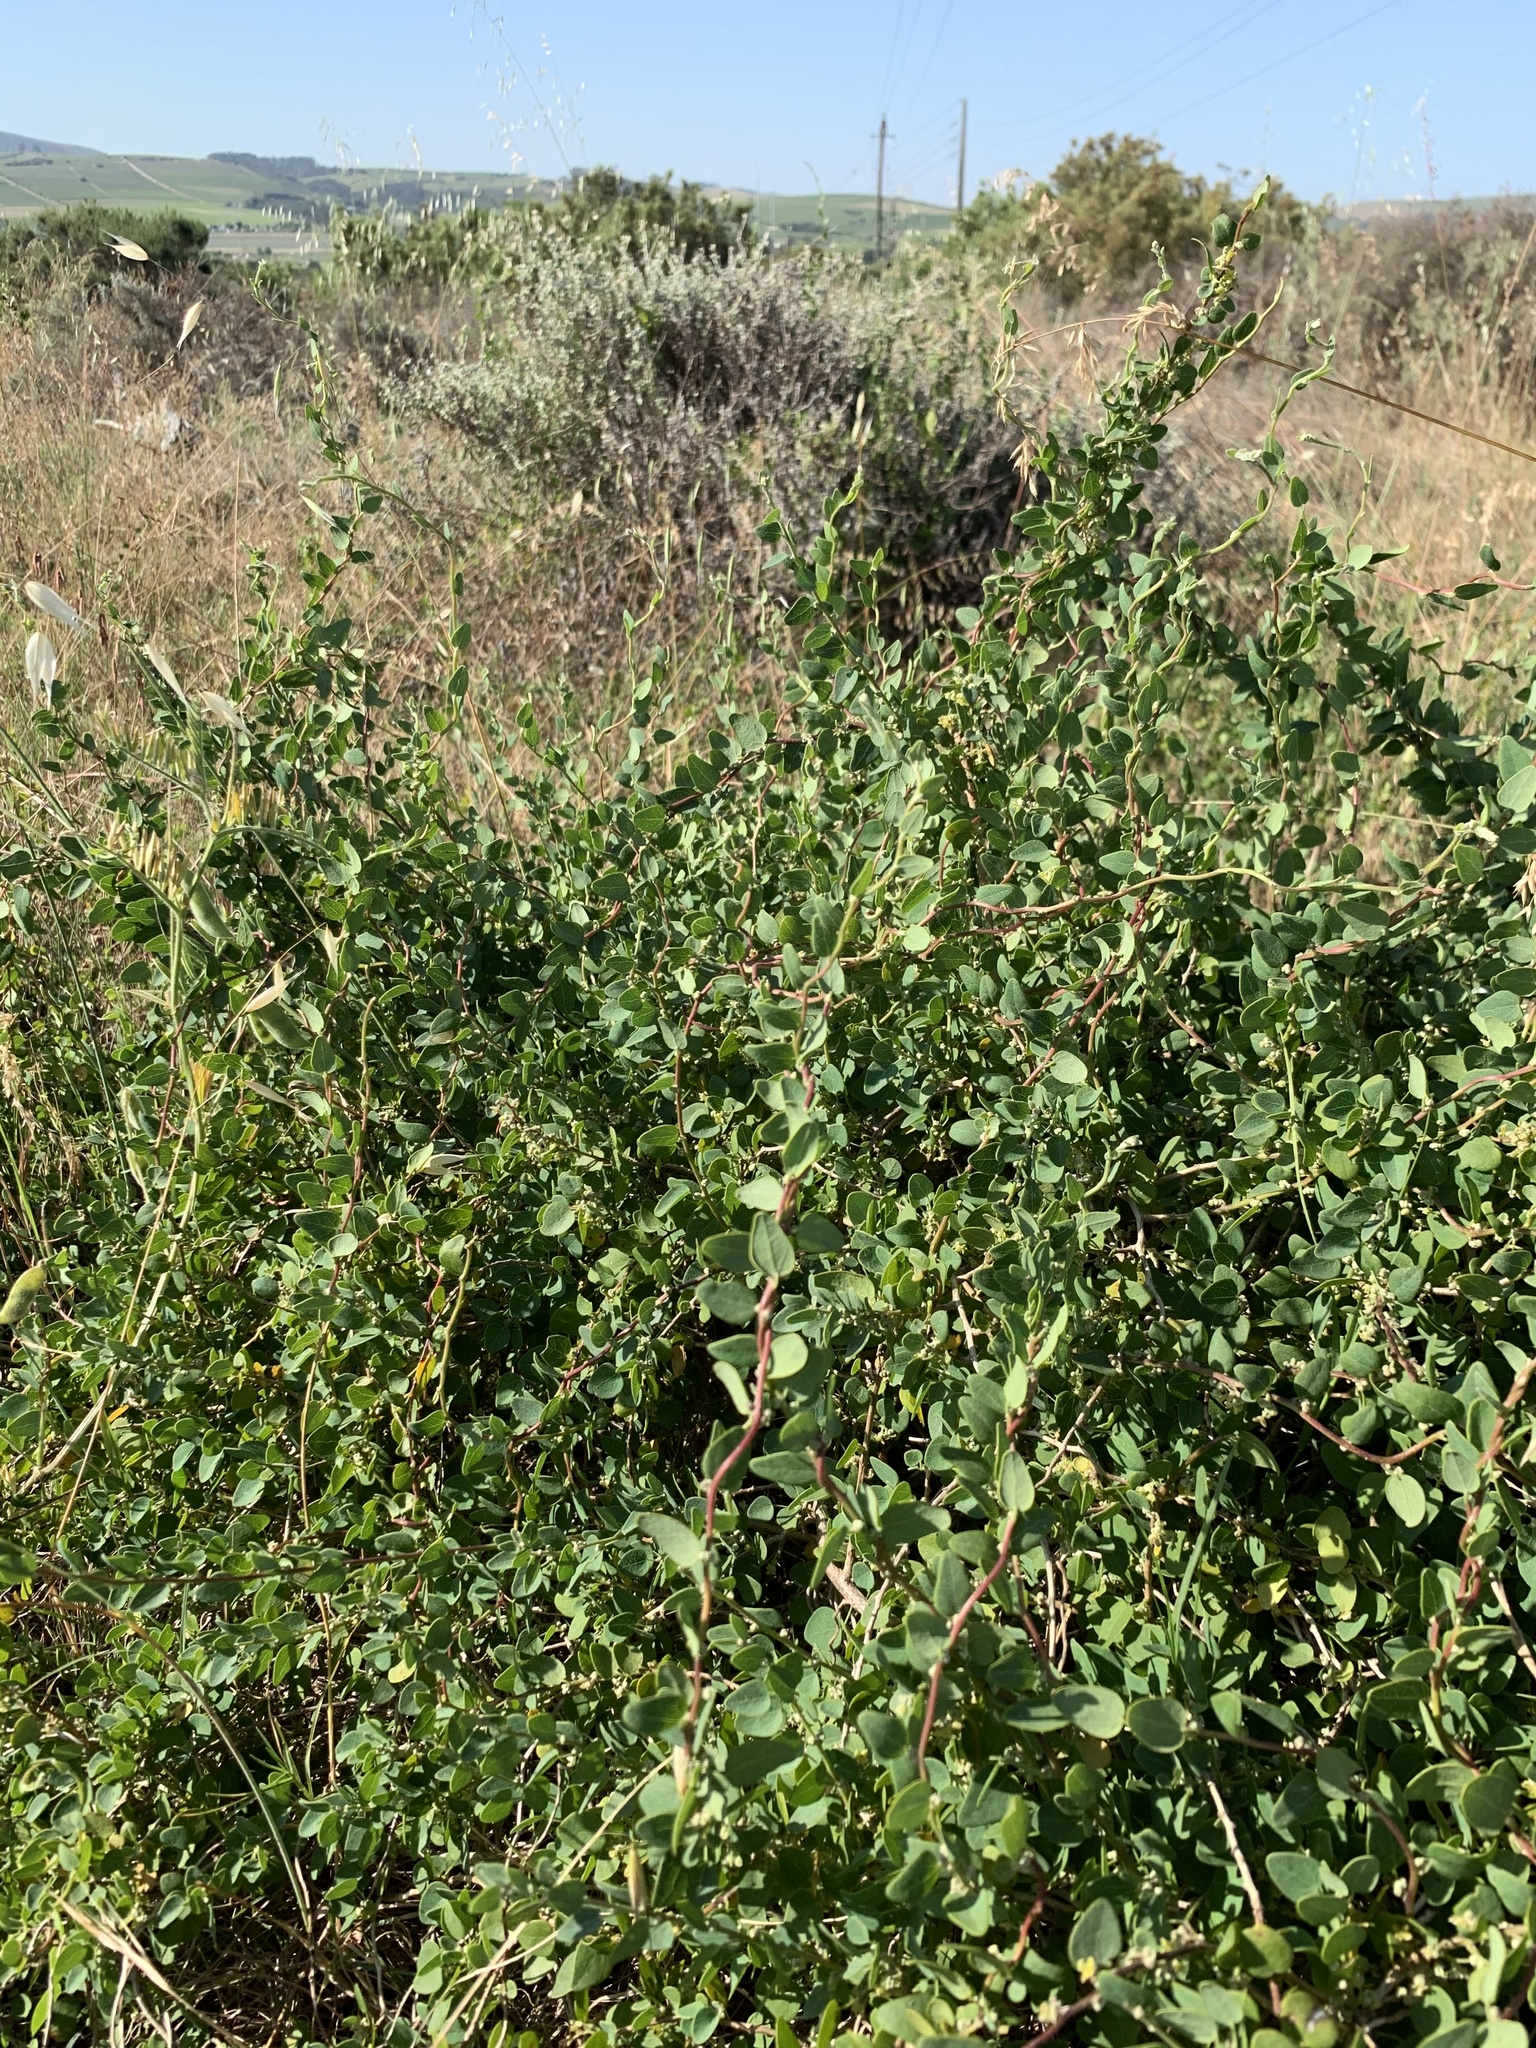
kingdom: Plantae
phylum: Tracheophyta
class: Magnoliopsida
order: Ranunculales
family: Menispermaceae
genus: Cissampelos
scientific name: Cissampelos capensis
